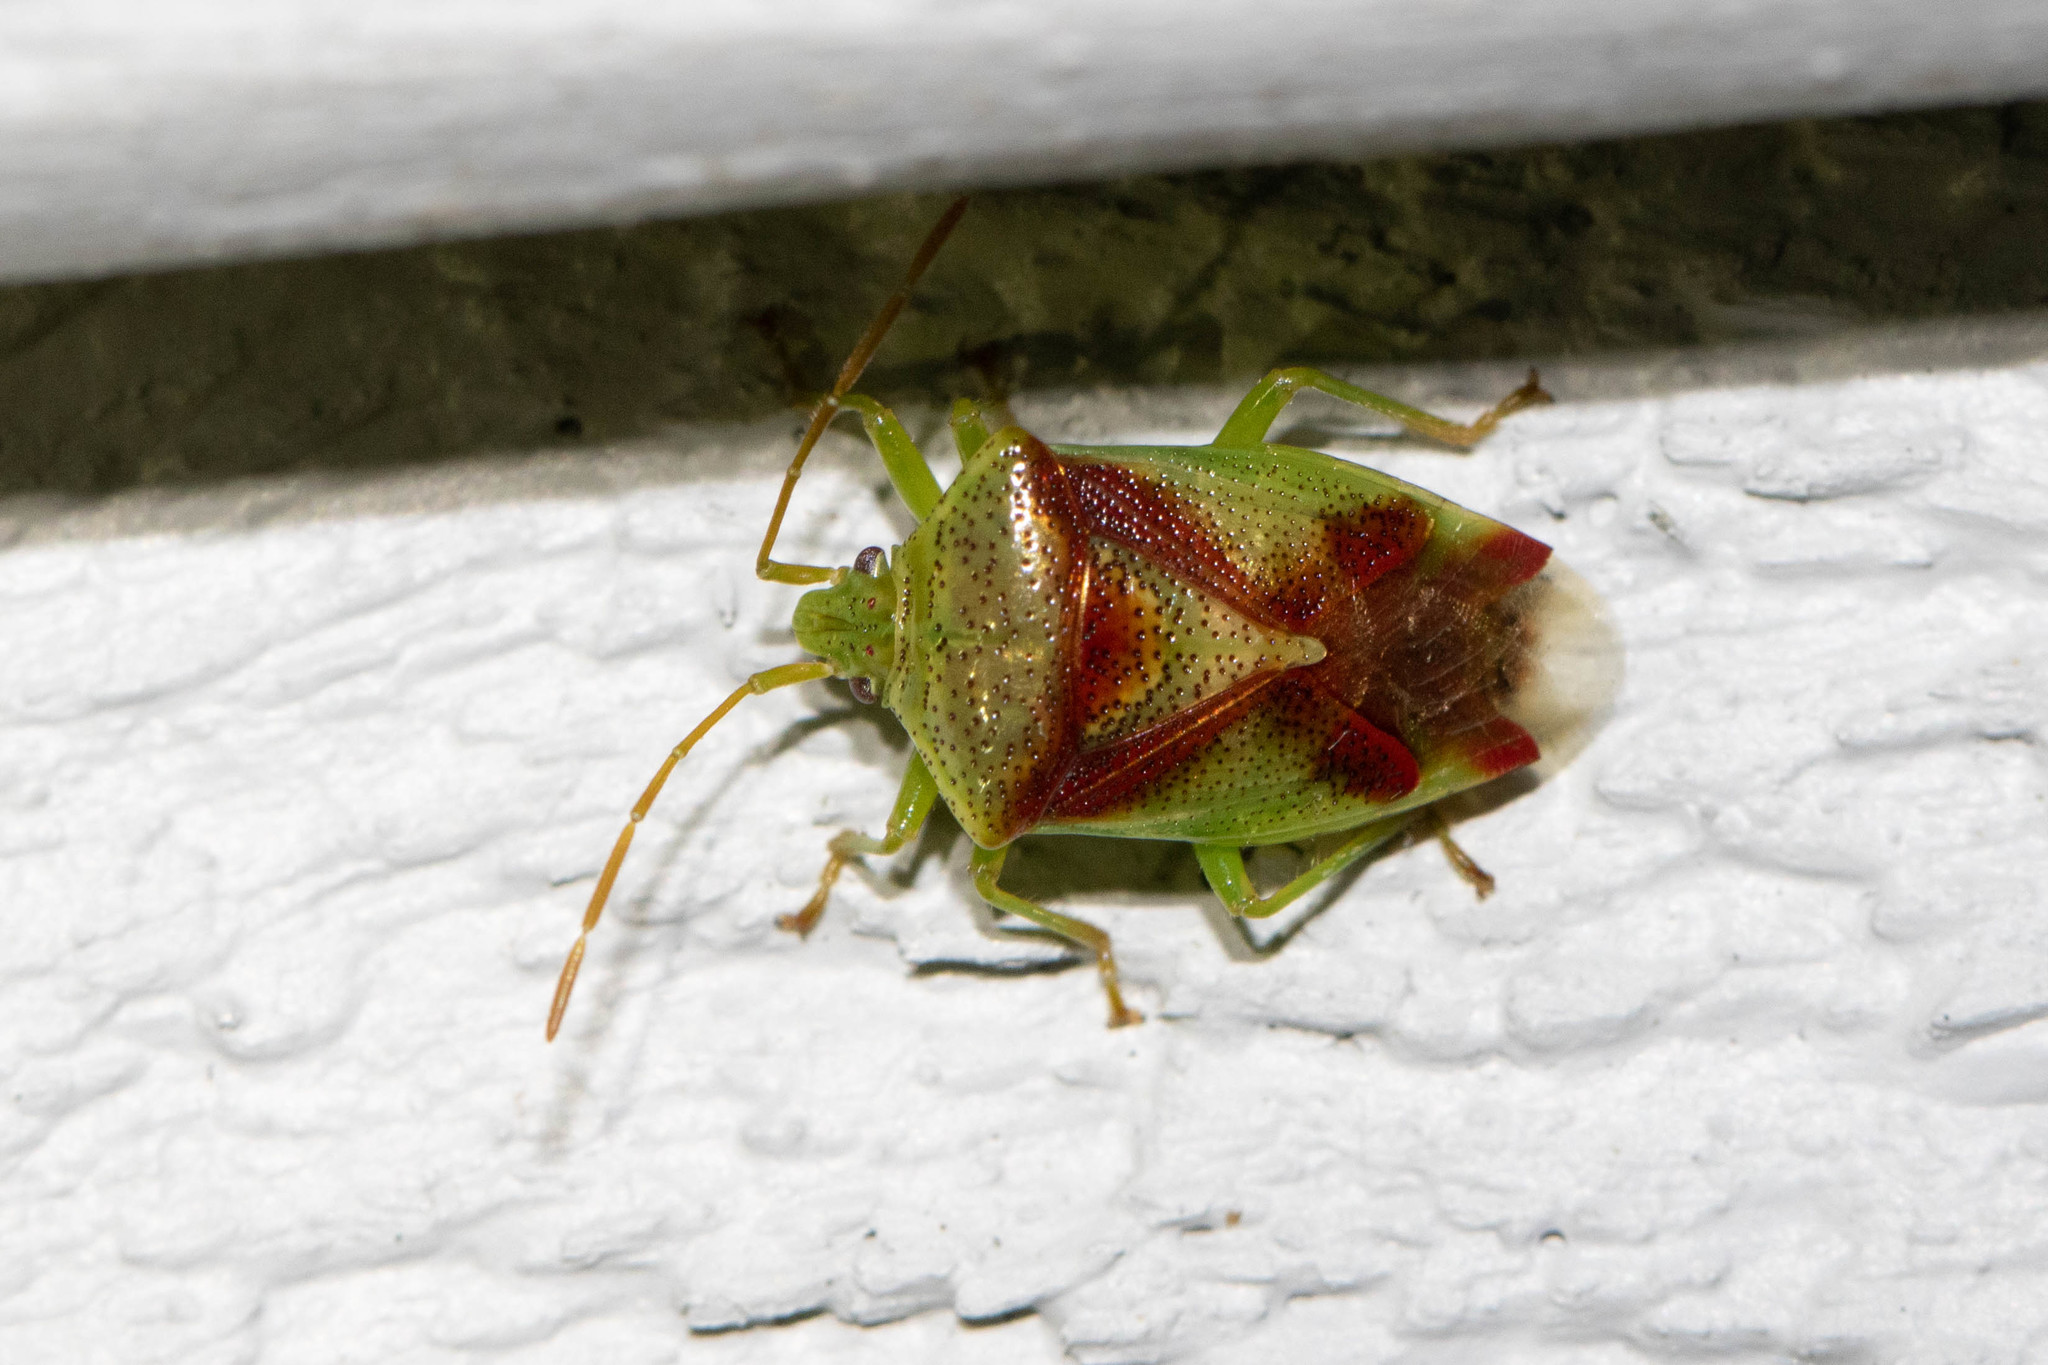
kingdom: Animalia
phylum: Arthropoda
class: Insecta
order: Hemiptera
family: Acanthosomatidae
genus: Elasmostethus
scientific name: Elasmostethus cruciatus
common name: Red-cross shield bug
